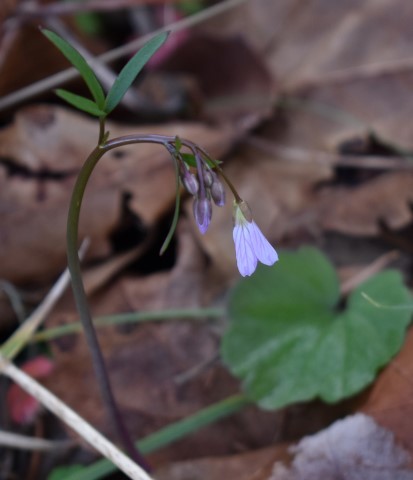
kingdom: Plantae
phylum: Tracheophyta
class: Magnoliopsida
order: Brassicales
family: Brassicaceae
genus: Cardamine
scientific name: Cardamine nuttallii
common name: Nuttall's toothwort
